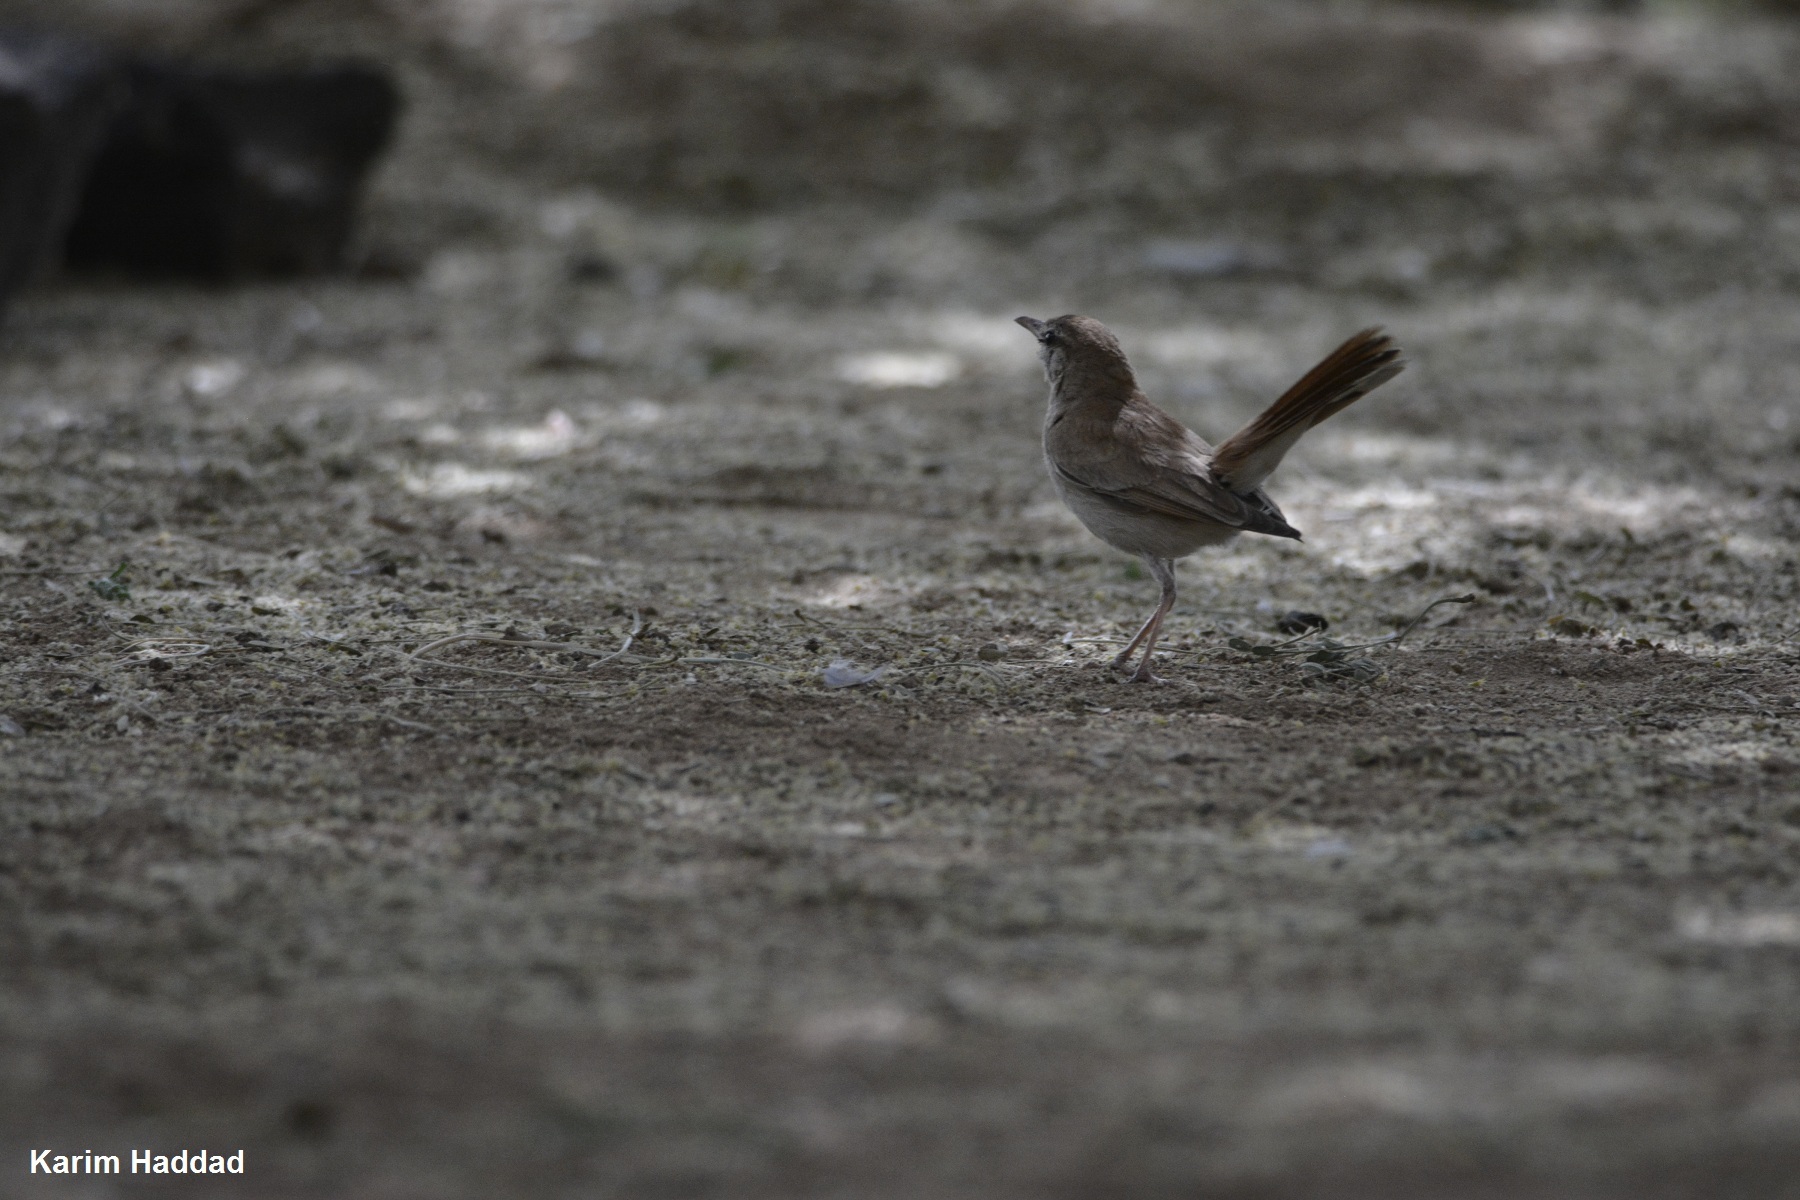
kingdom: Animalia
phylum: Chordata
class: Aves
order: Passeriformes
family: Muscicapidae
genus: Erythropygia
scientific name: Erythropygia galactotes
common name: Rufous-tailed scrub robin
